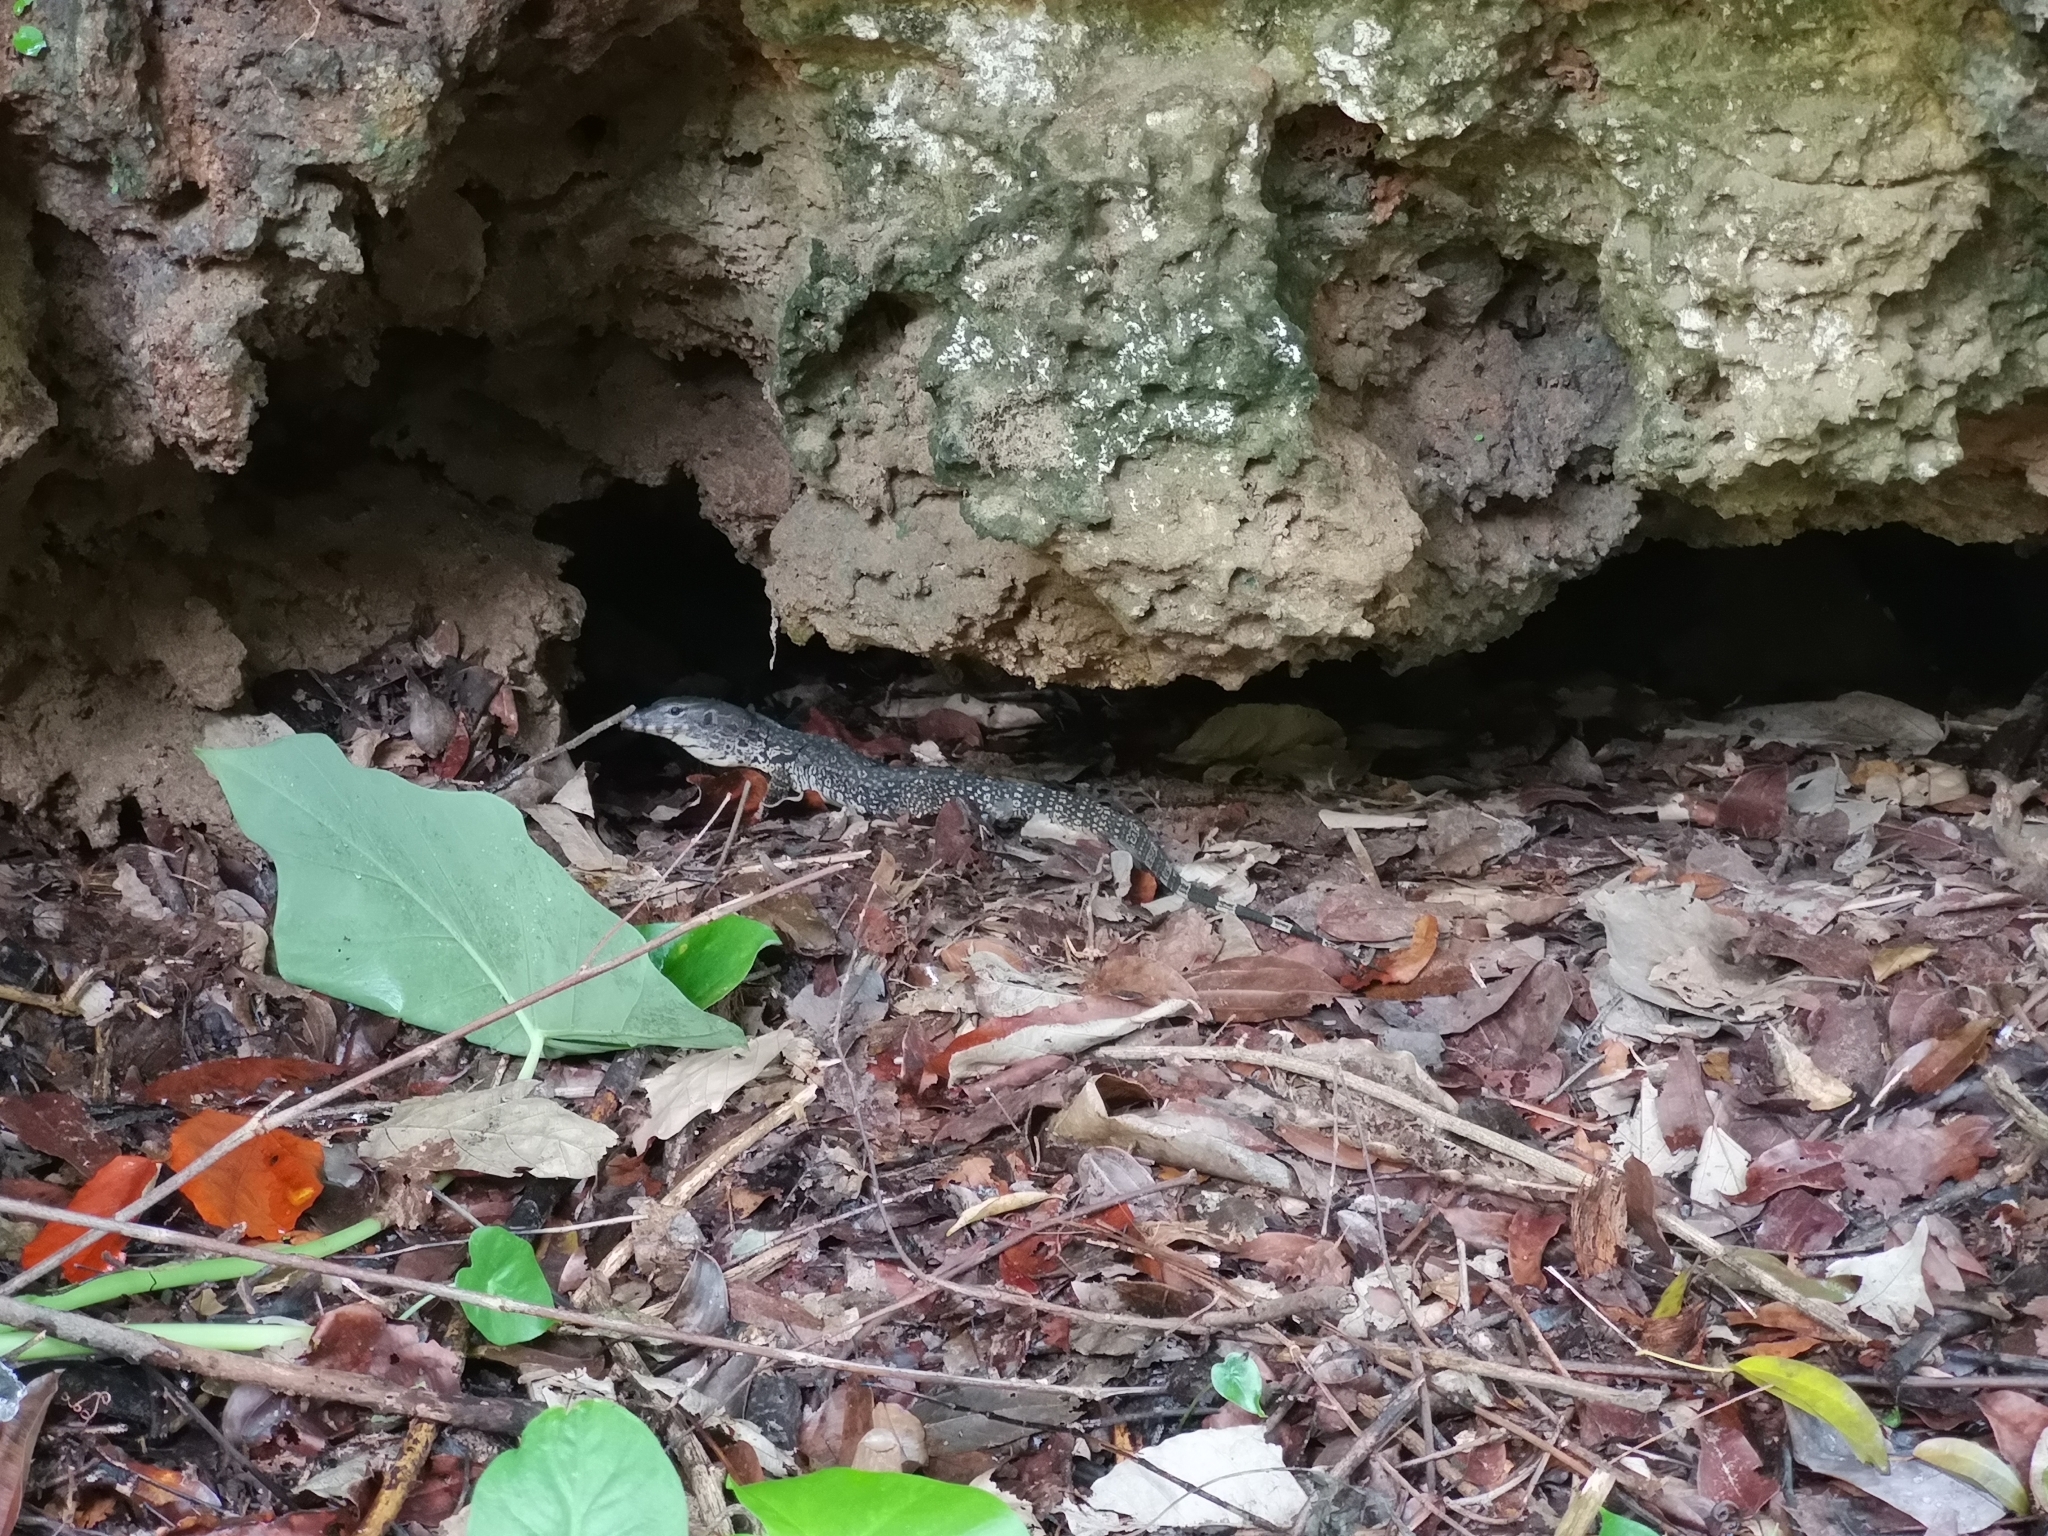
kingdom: Animalia
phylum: Chordata
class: Squamata
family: Varanidae
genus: Varanus
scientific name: Varanus salvator
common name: Common water monitor
